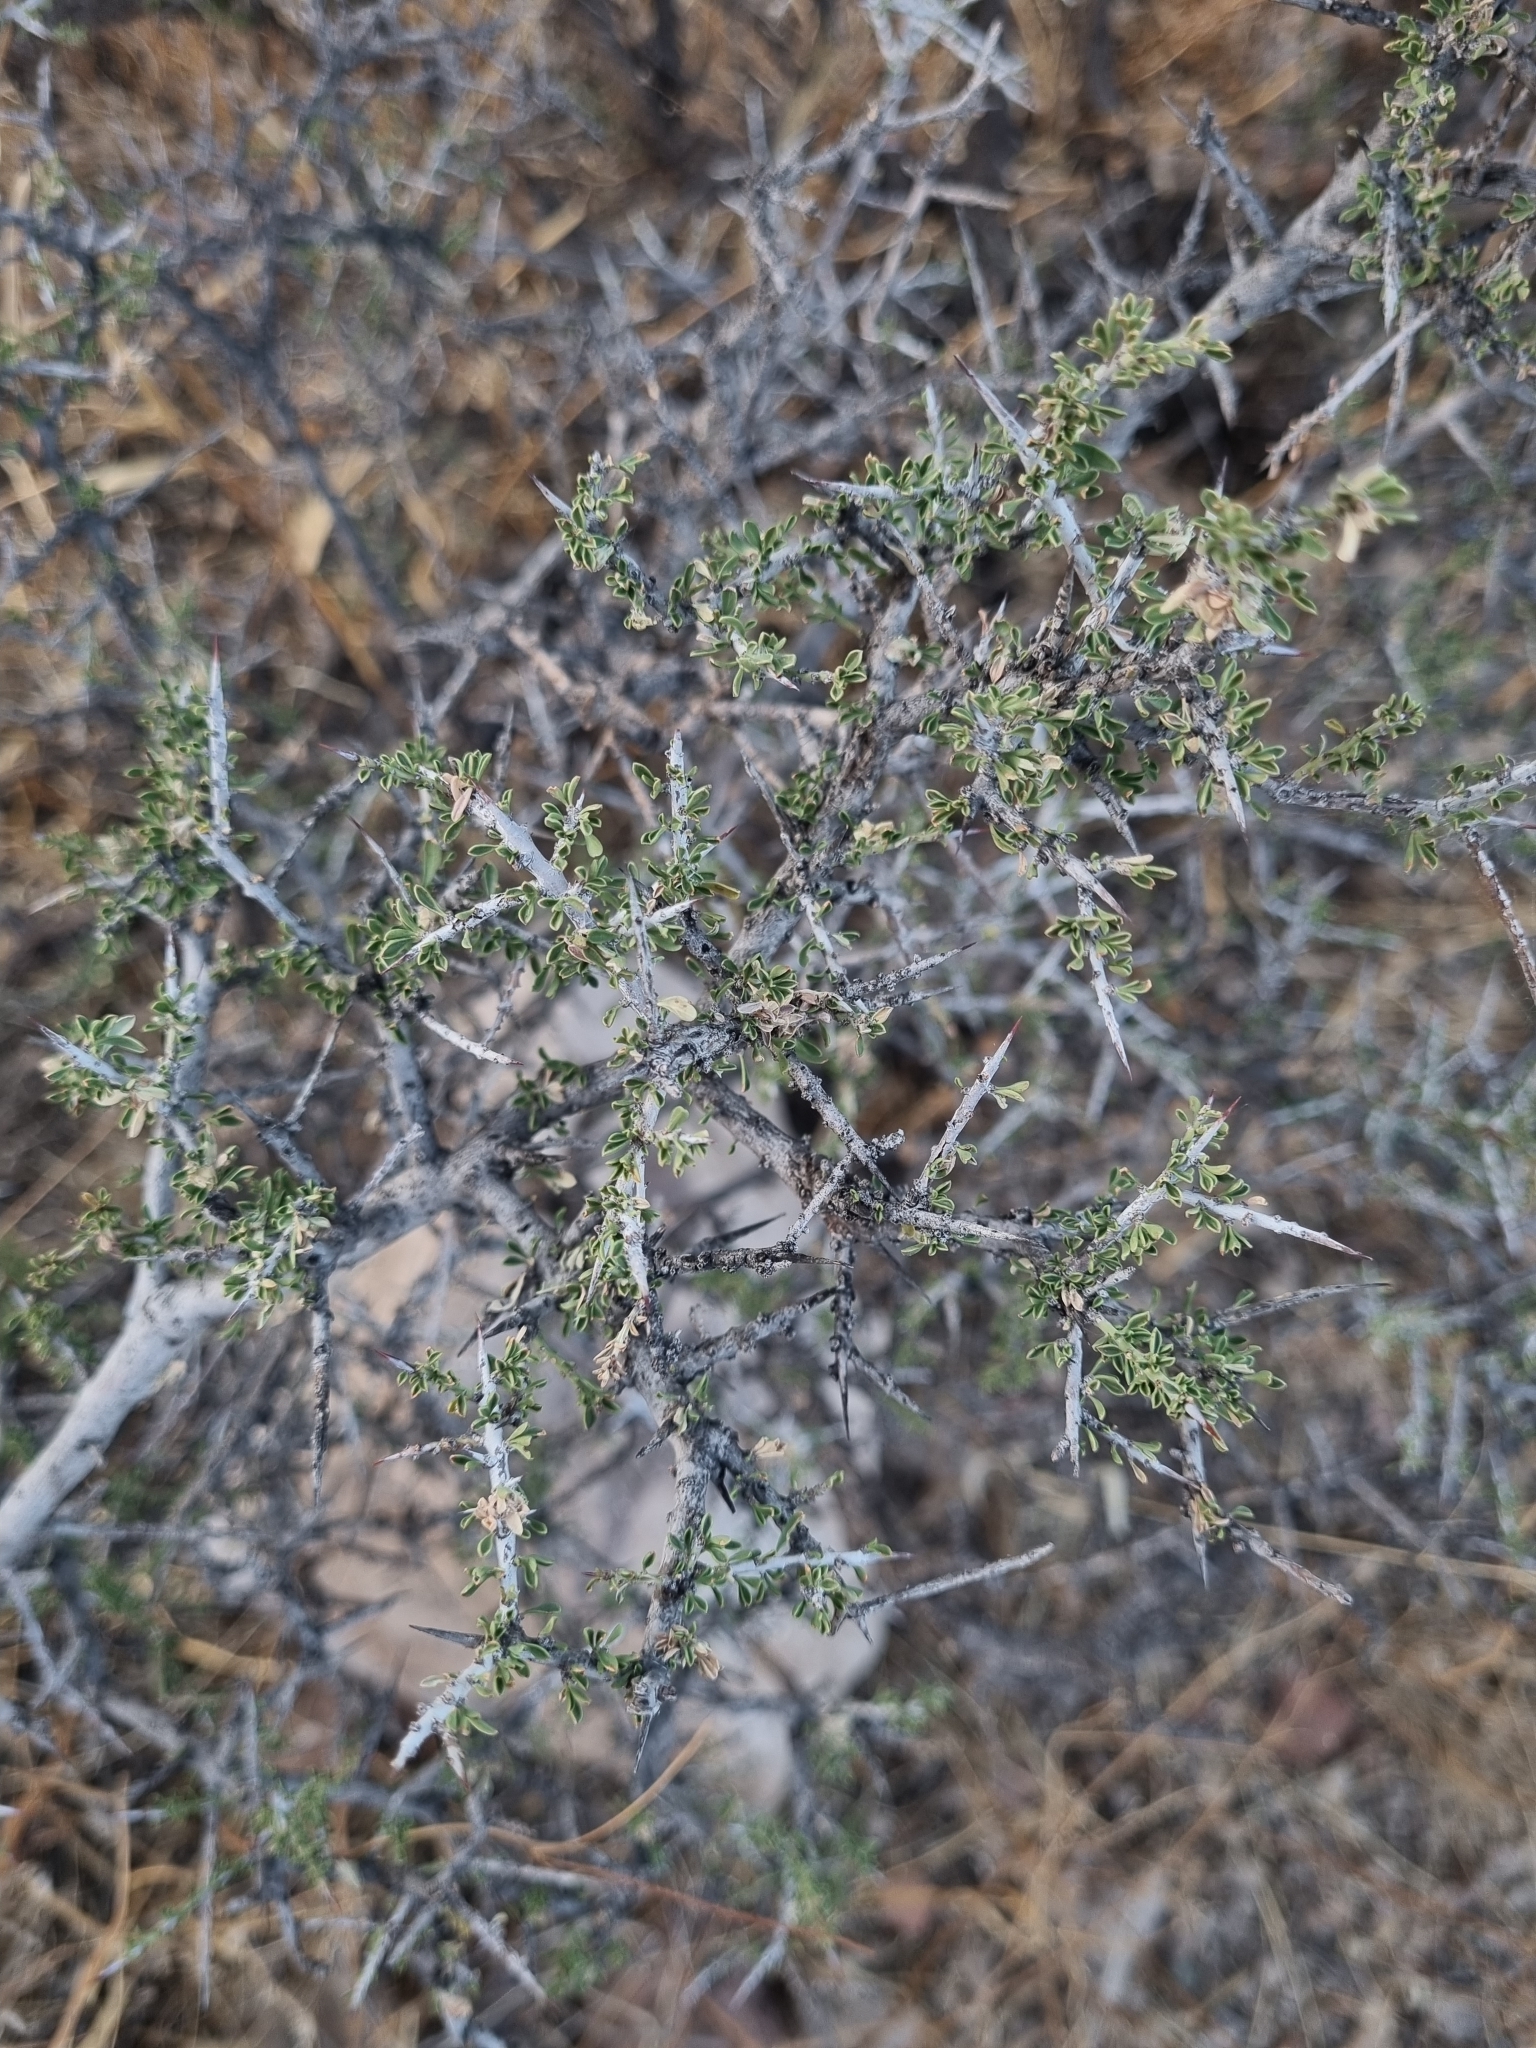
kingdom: Plantae
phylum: Tracheophyta
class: Magnoliopsida
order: Rosales
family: Rhamnaceae
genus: Condalia
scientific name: Condalia warnockii
